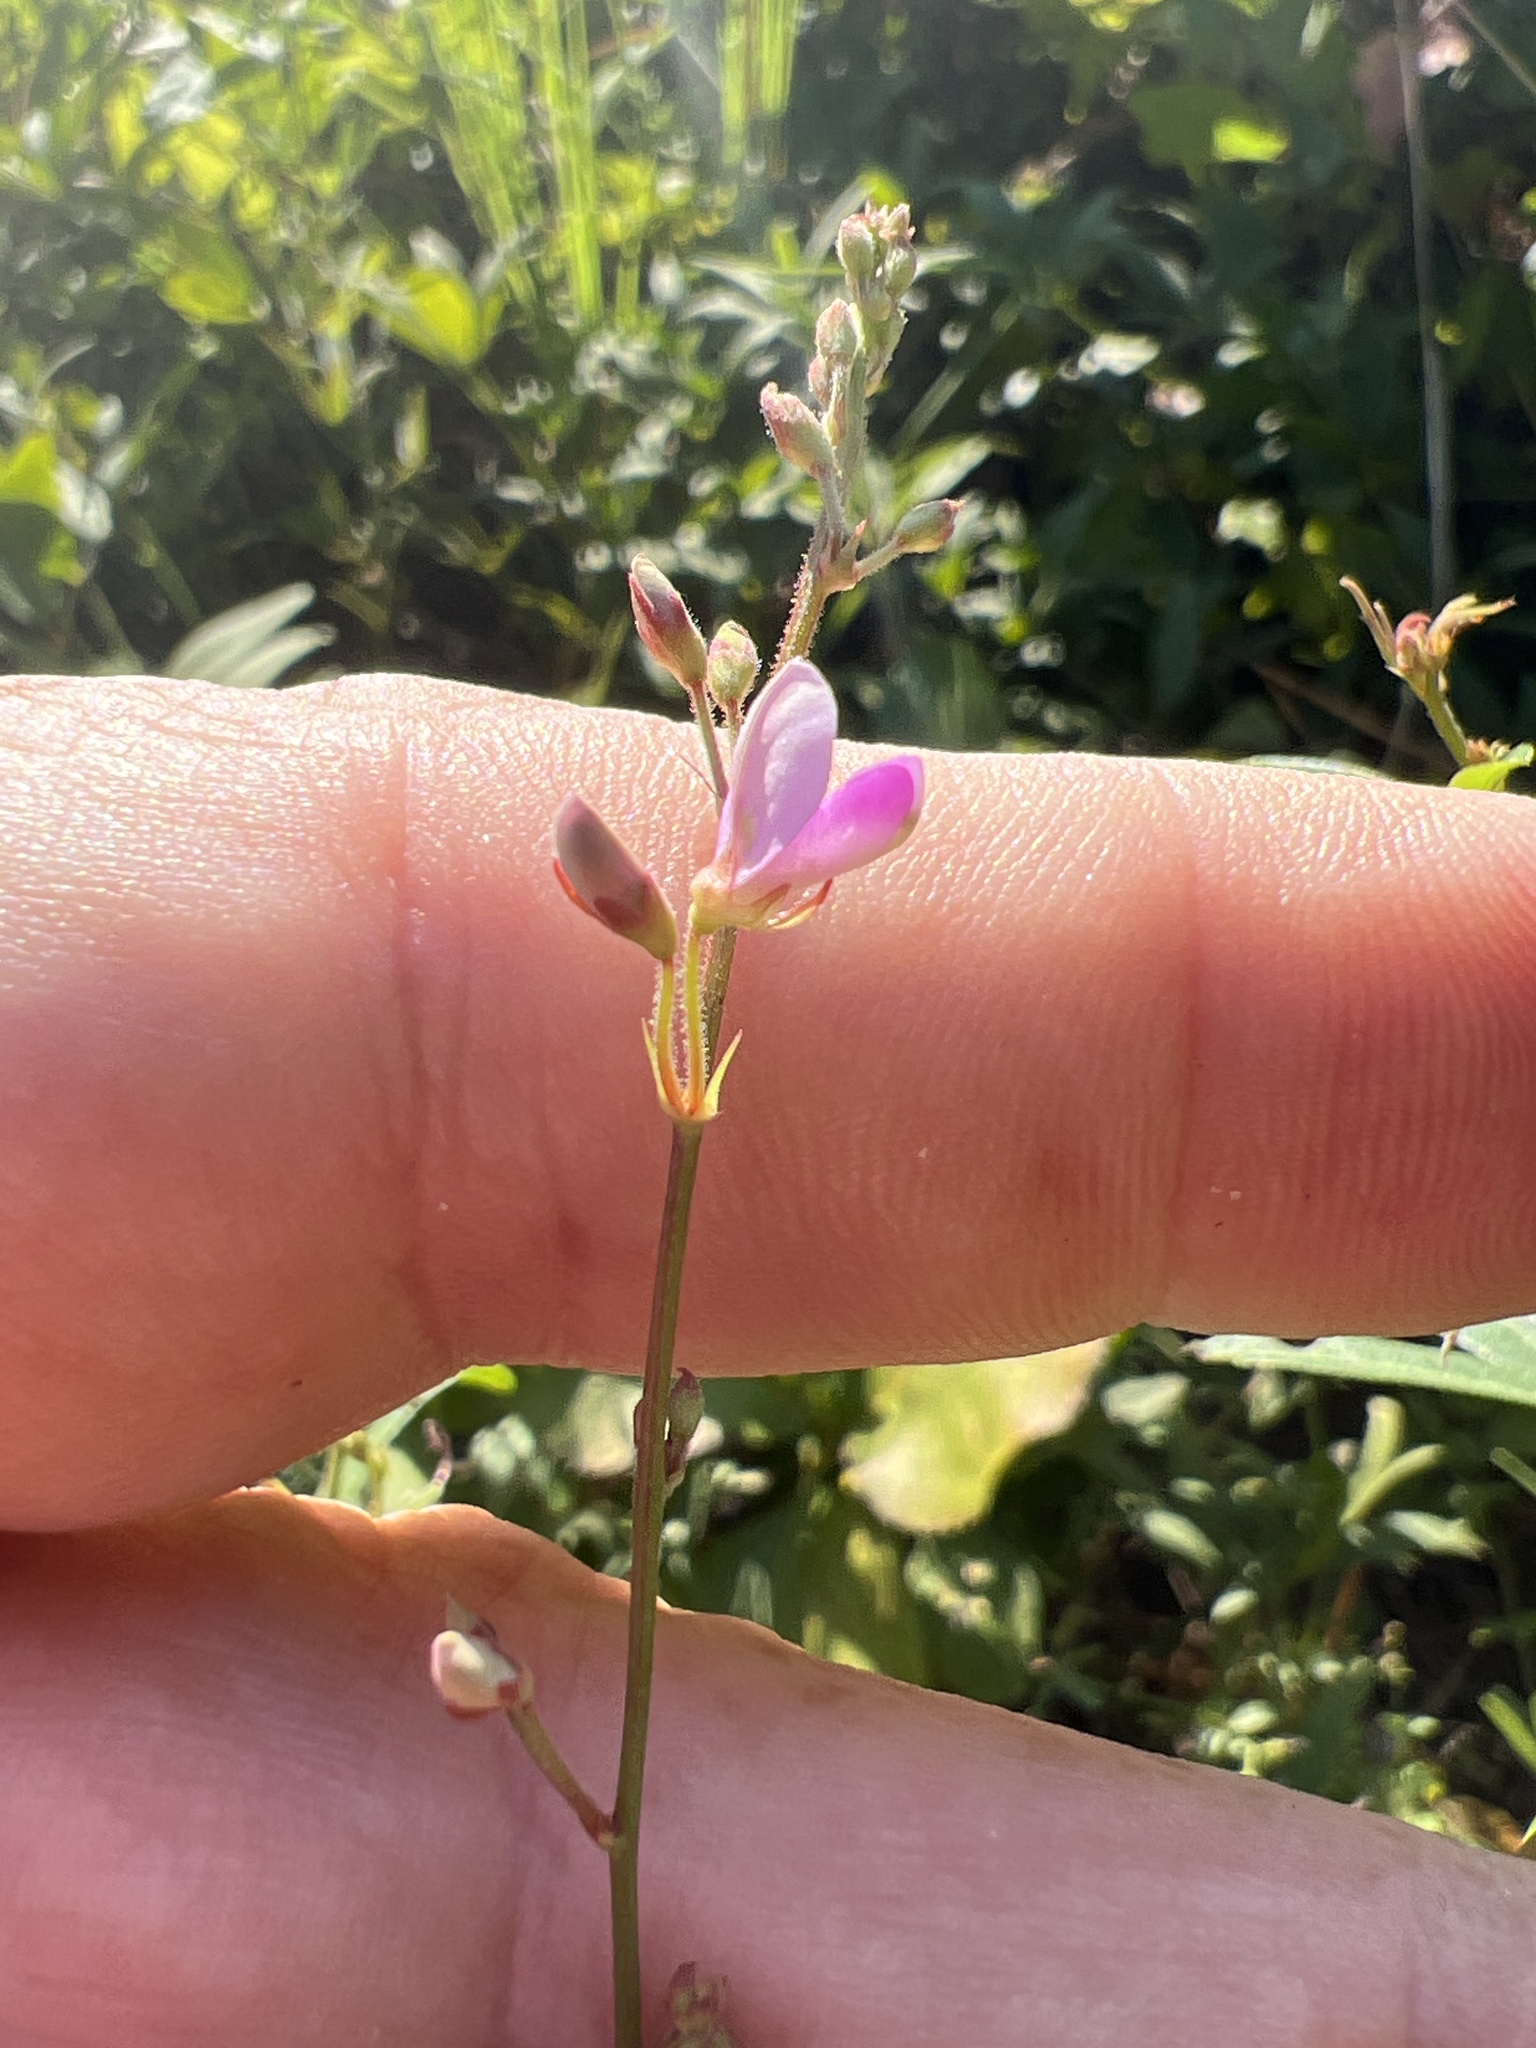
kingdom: Plantae
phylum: Tracheophyta
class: Magnoliopsida
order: Fabales
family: Fabaceae
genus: Desmodium
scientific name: Desmodium paniculatum
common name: Panicled tick-clover
